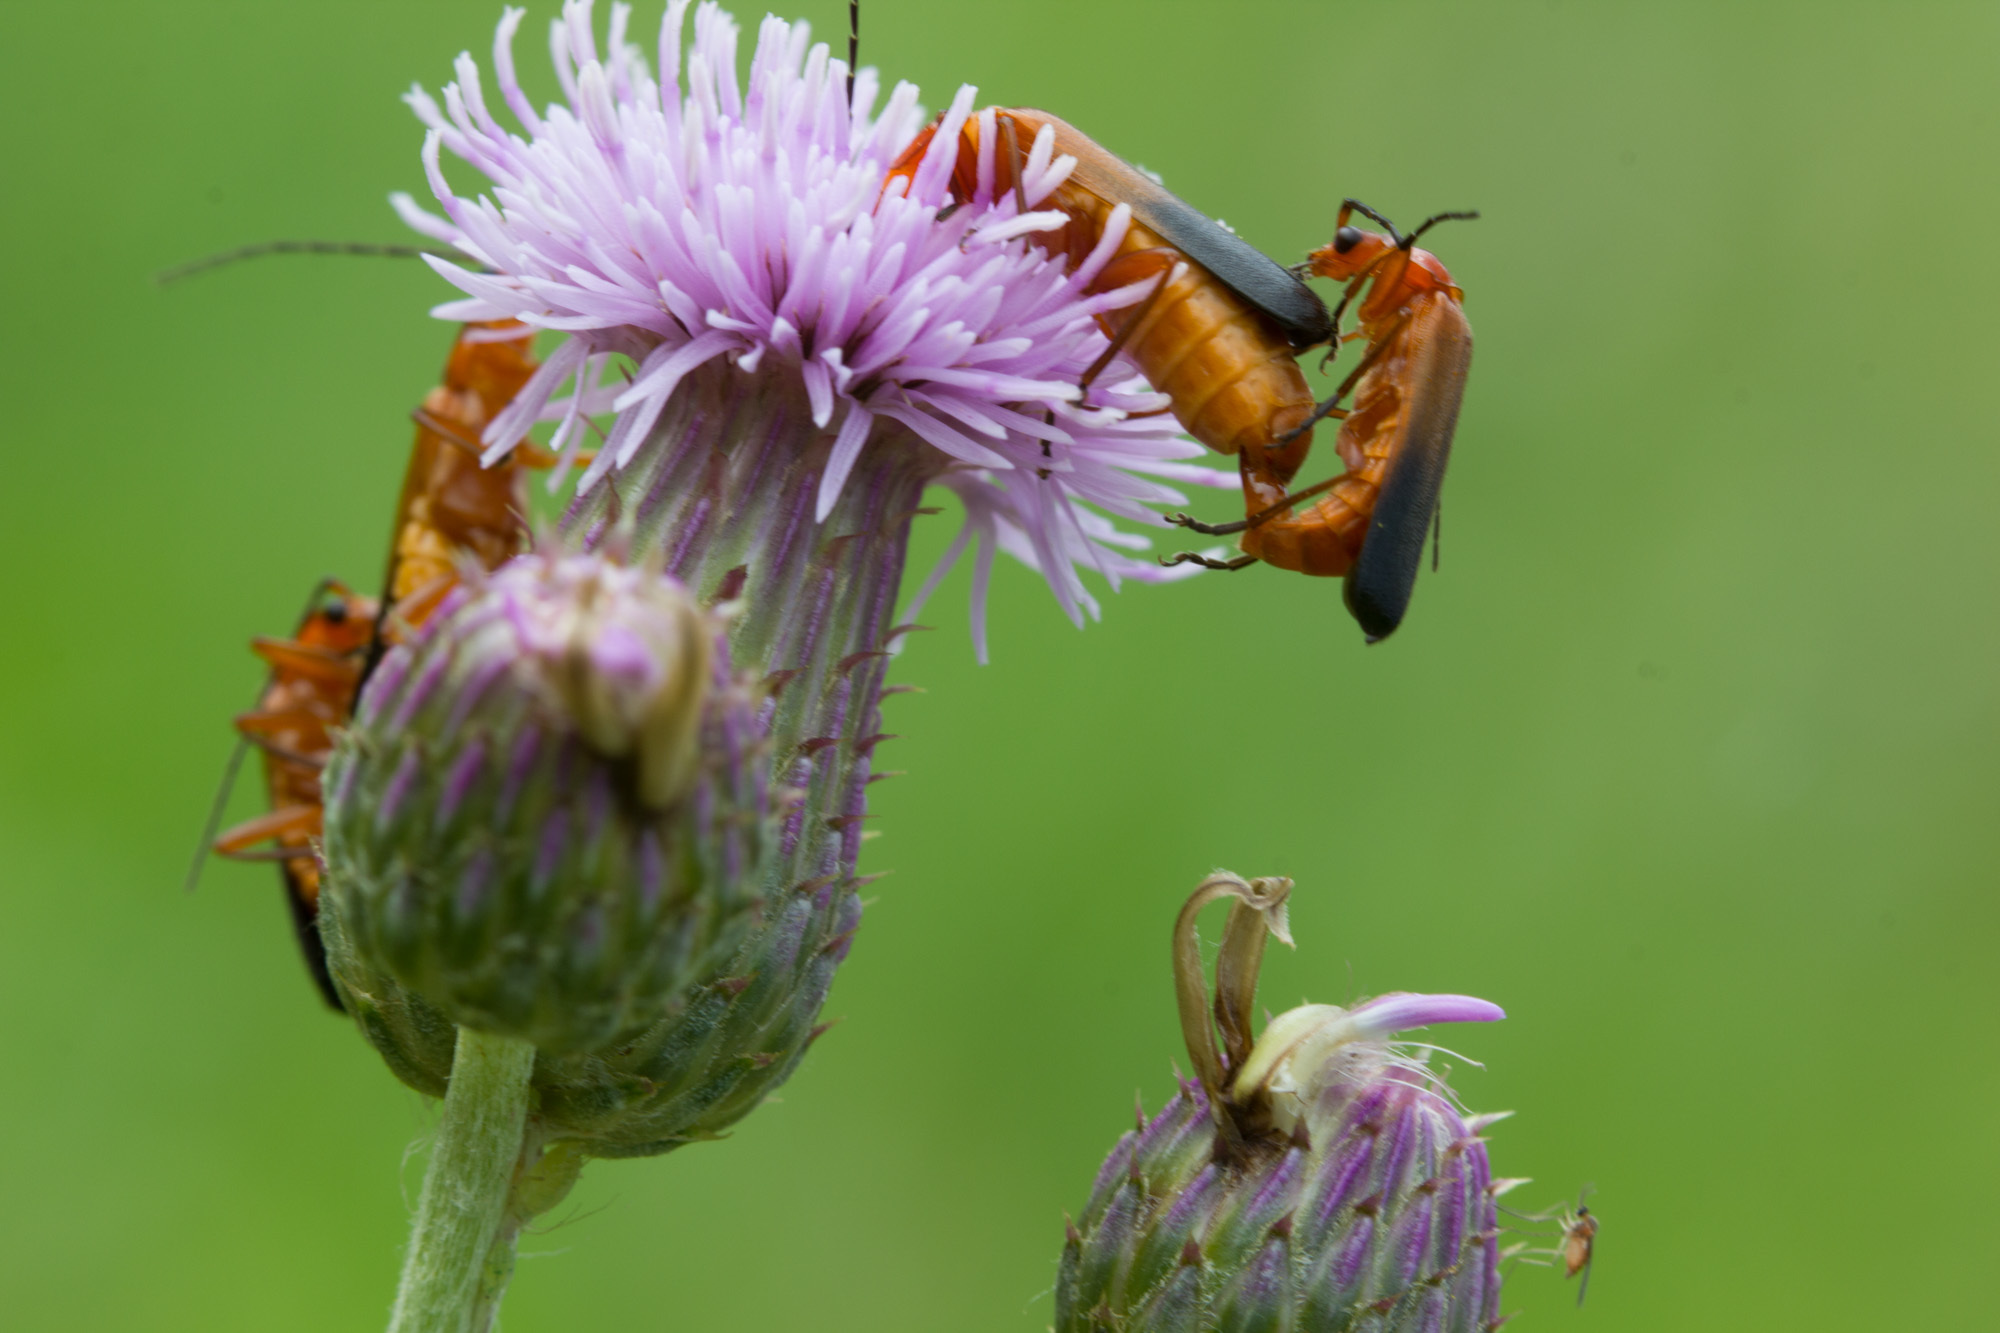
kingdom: Animalia
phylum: Arthropoda
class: Insecta
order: Coleoptera
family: Cantharidae
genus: Rhagonycha
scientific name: Rhagonycha fulva
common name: Common red soldier beetle
